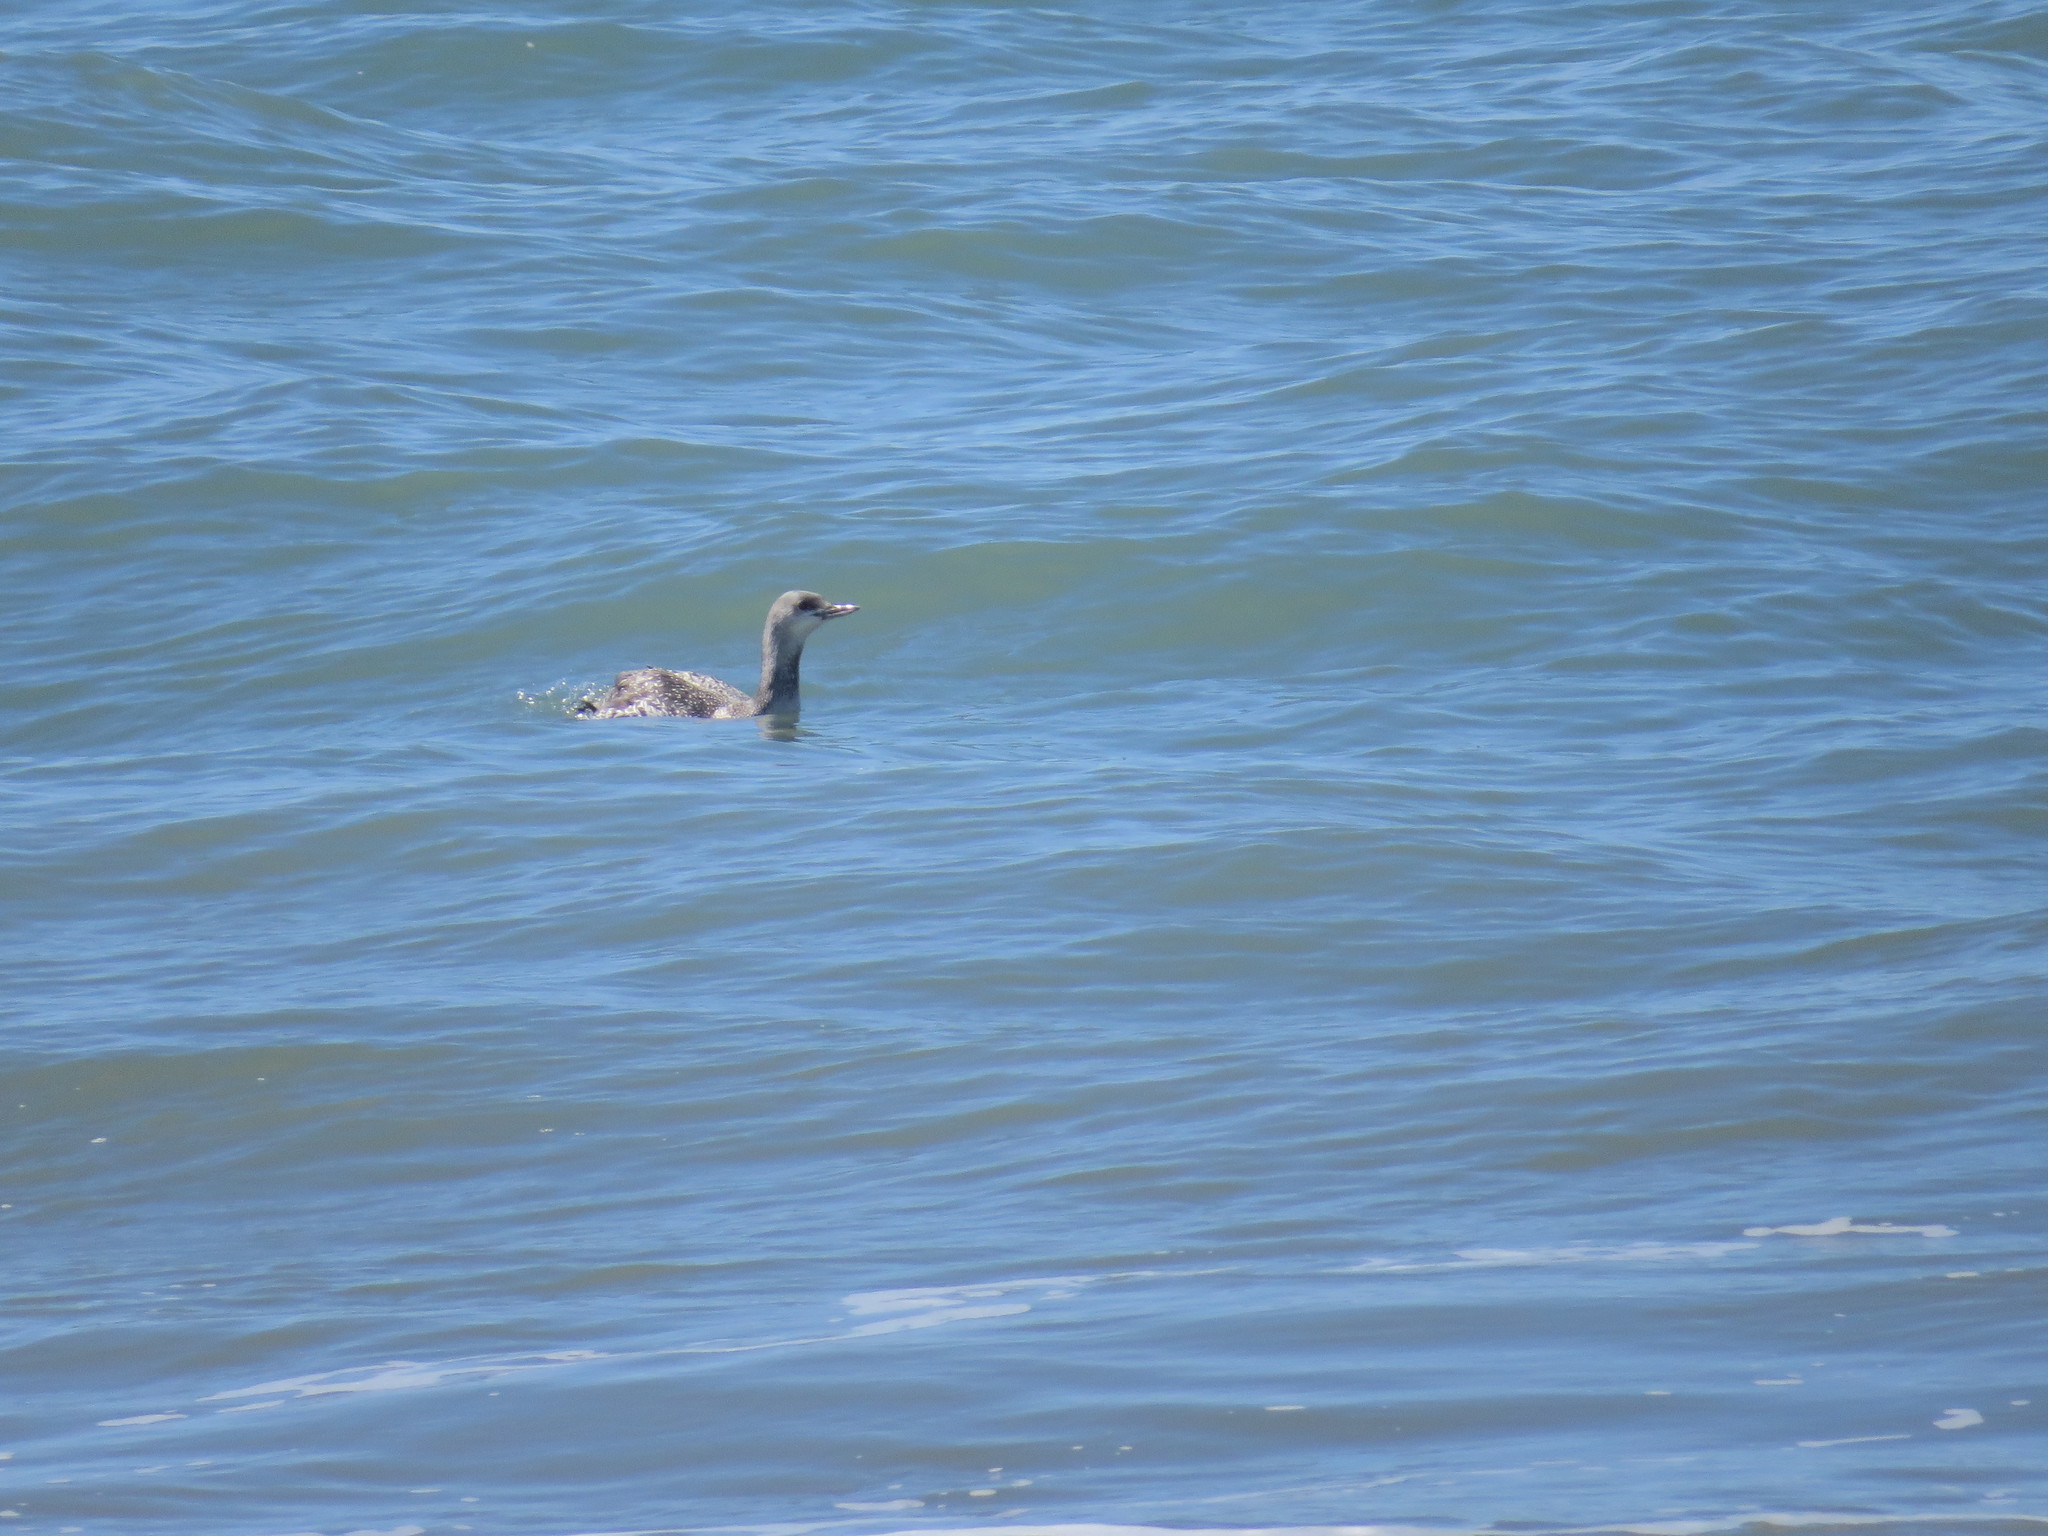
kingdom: Animalia
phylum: Chordata
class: Aves
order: Gaviiformes
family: Gaviidae
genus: Gavia
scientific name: Gavia stellata
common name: Red-throated loon
